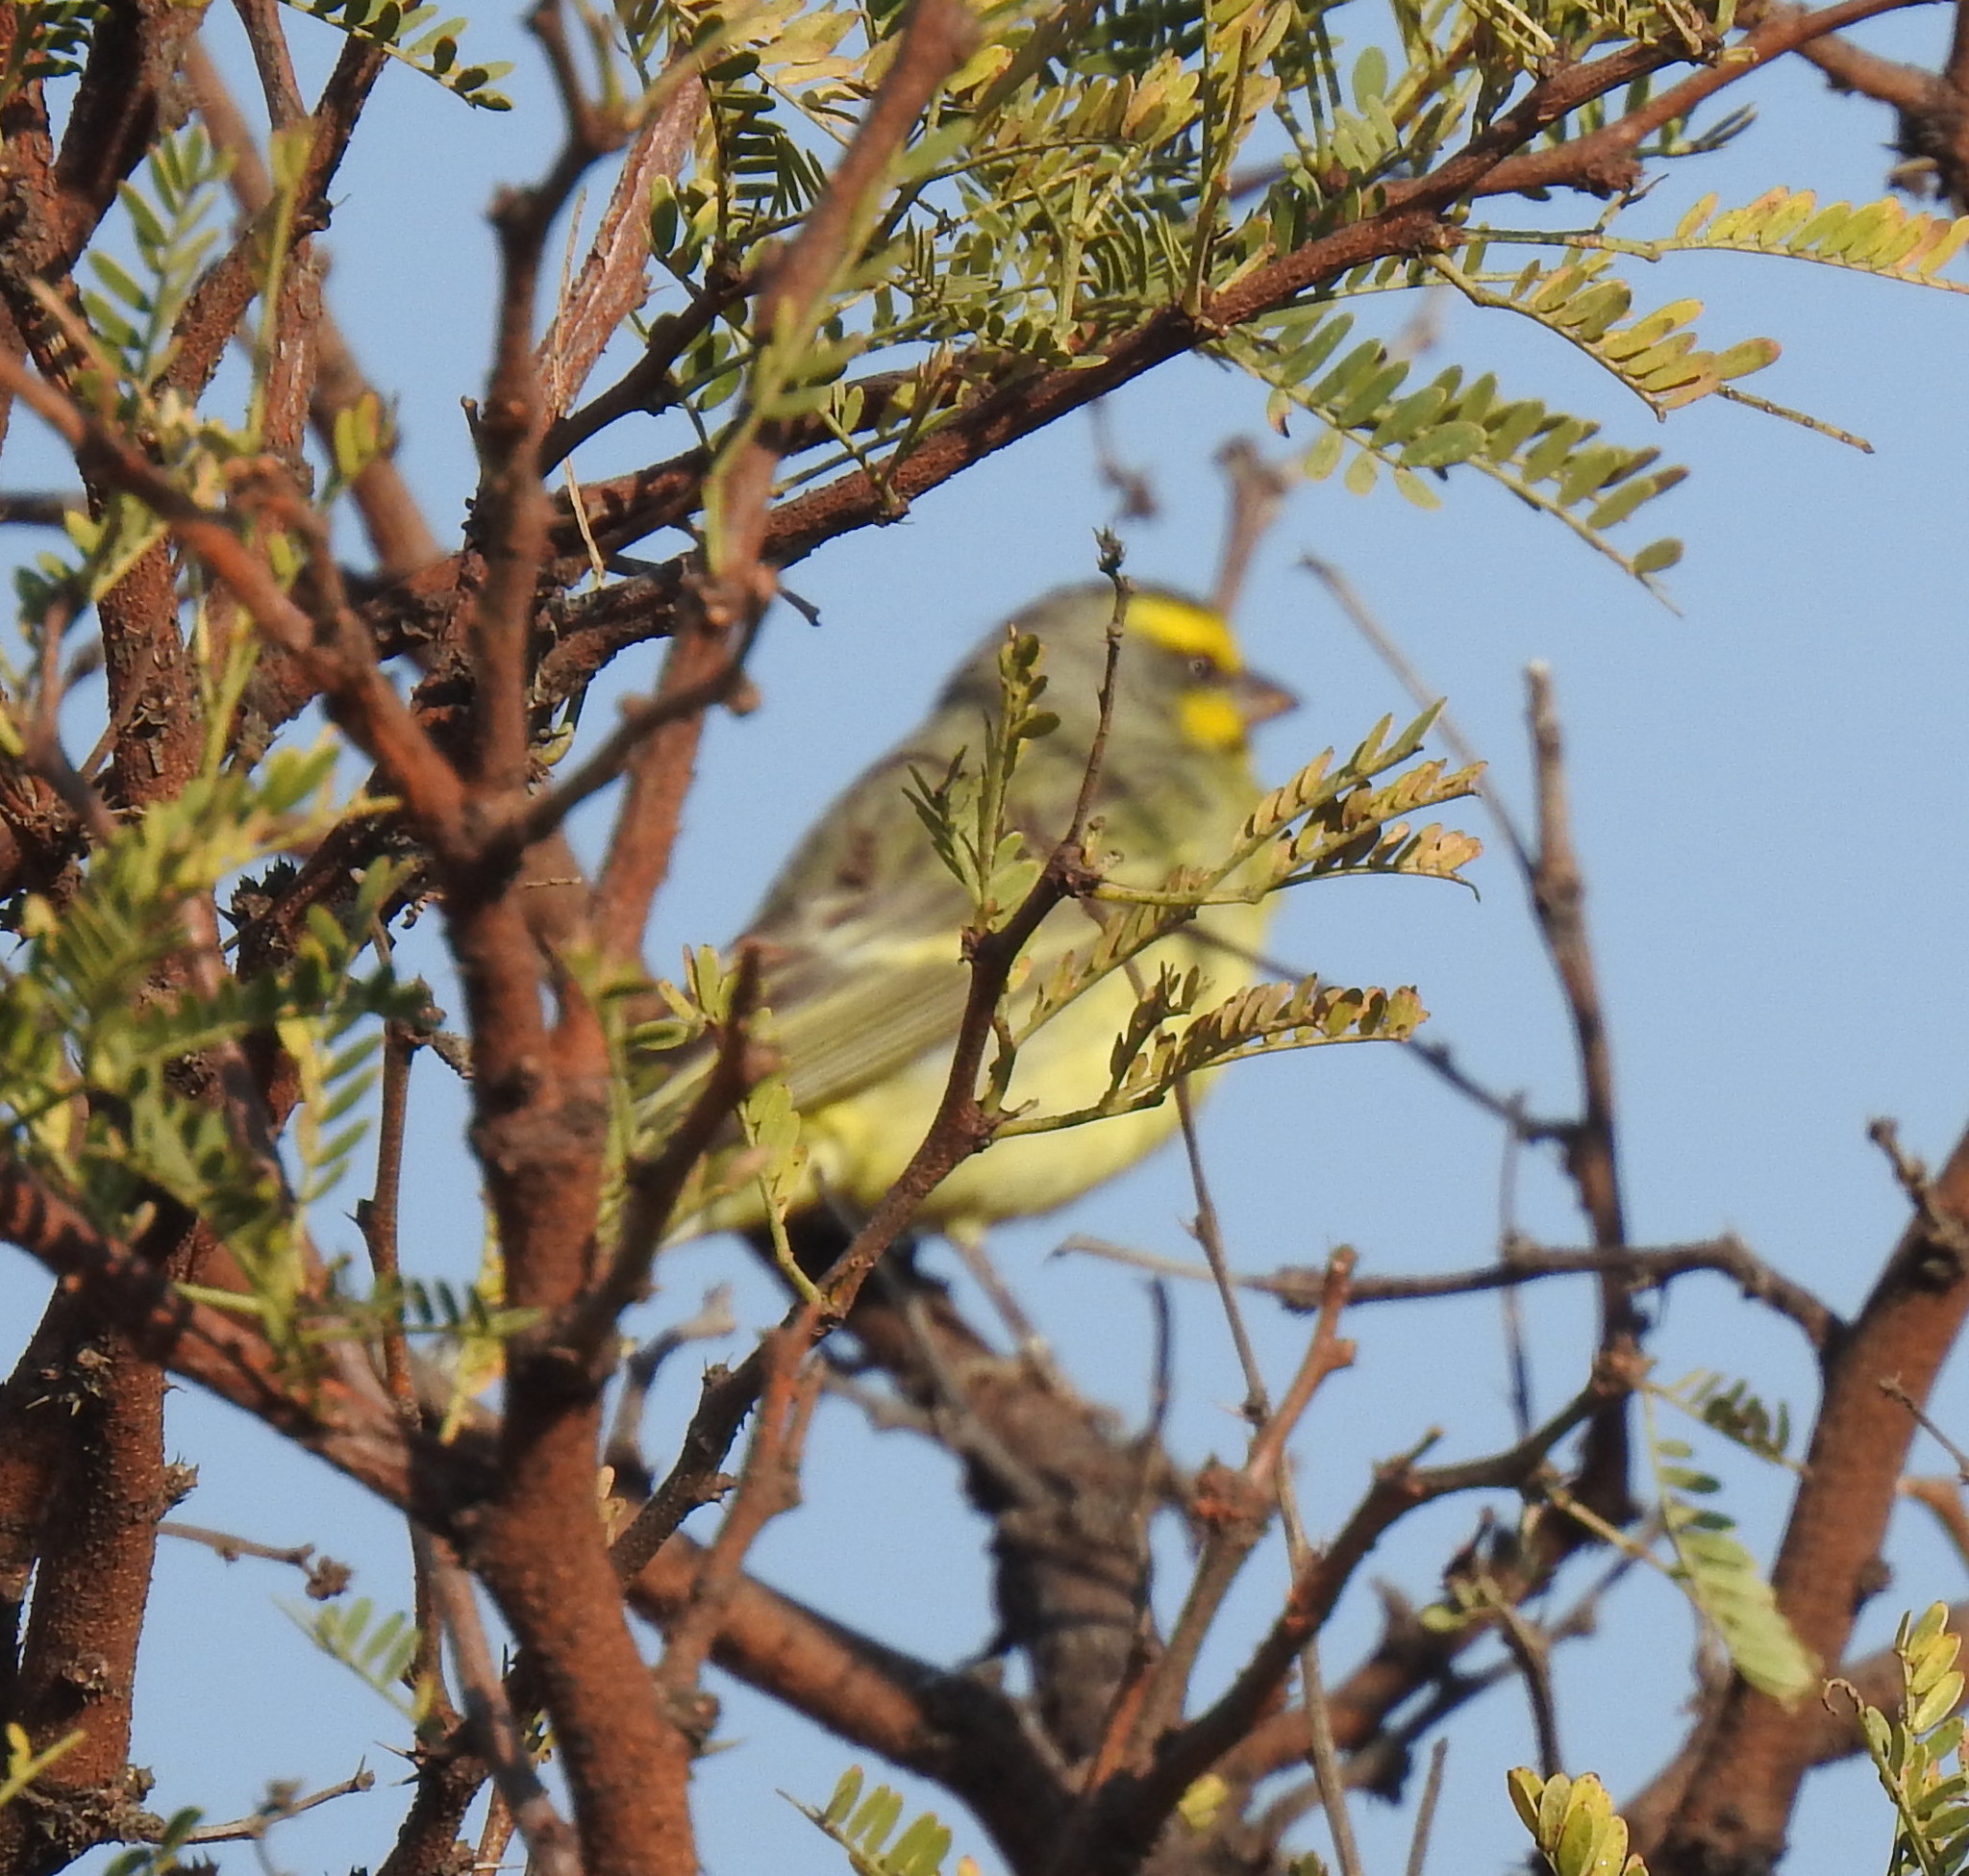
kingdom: Animalia
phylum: Chordata
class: Aves
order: Passeriformes
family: Fringillidae
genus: Crithagra
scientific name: Crithagra mozambica
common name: Yellow-fronted canary
